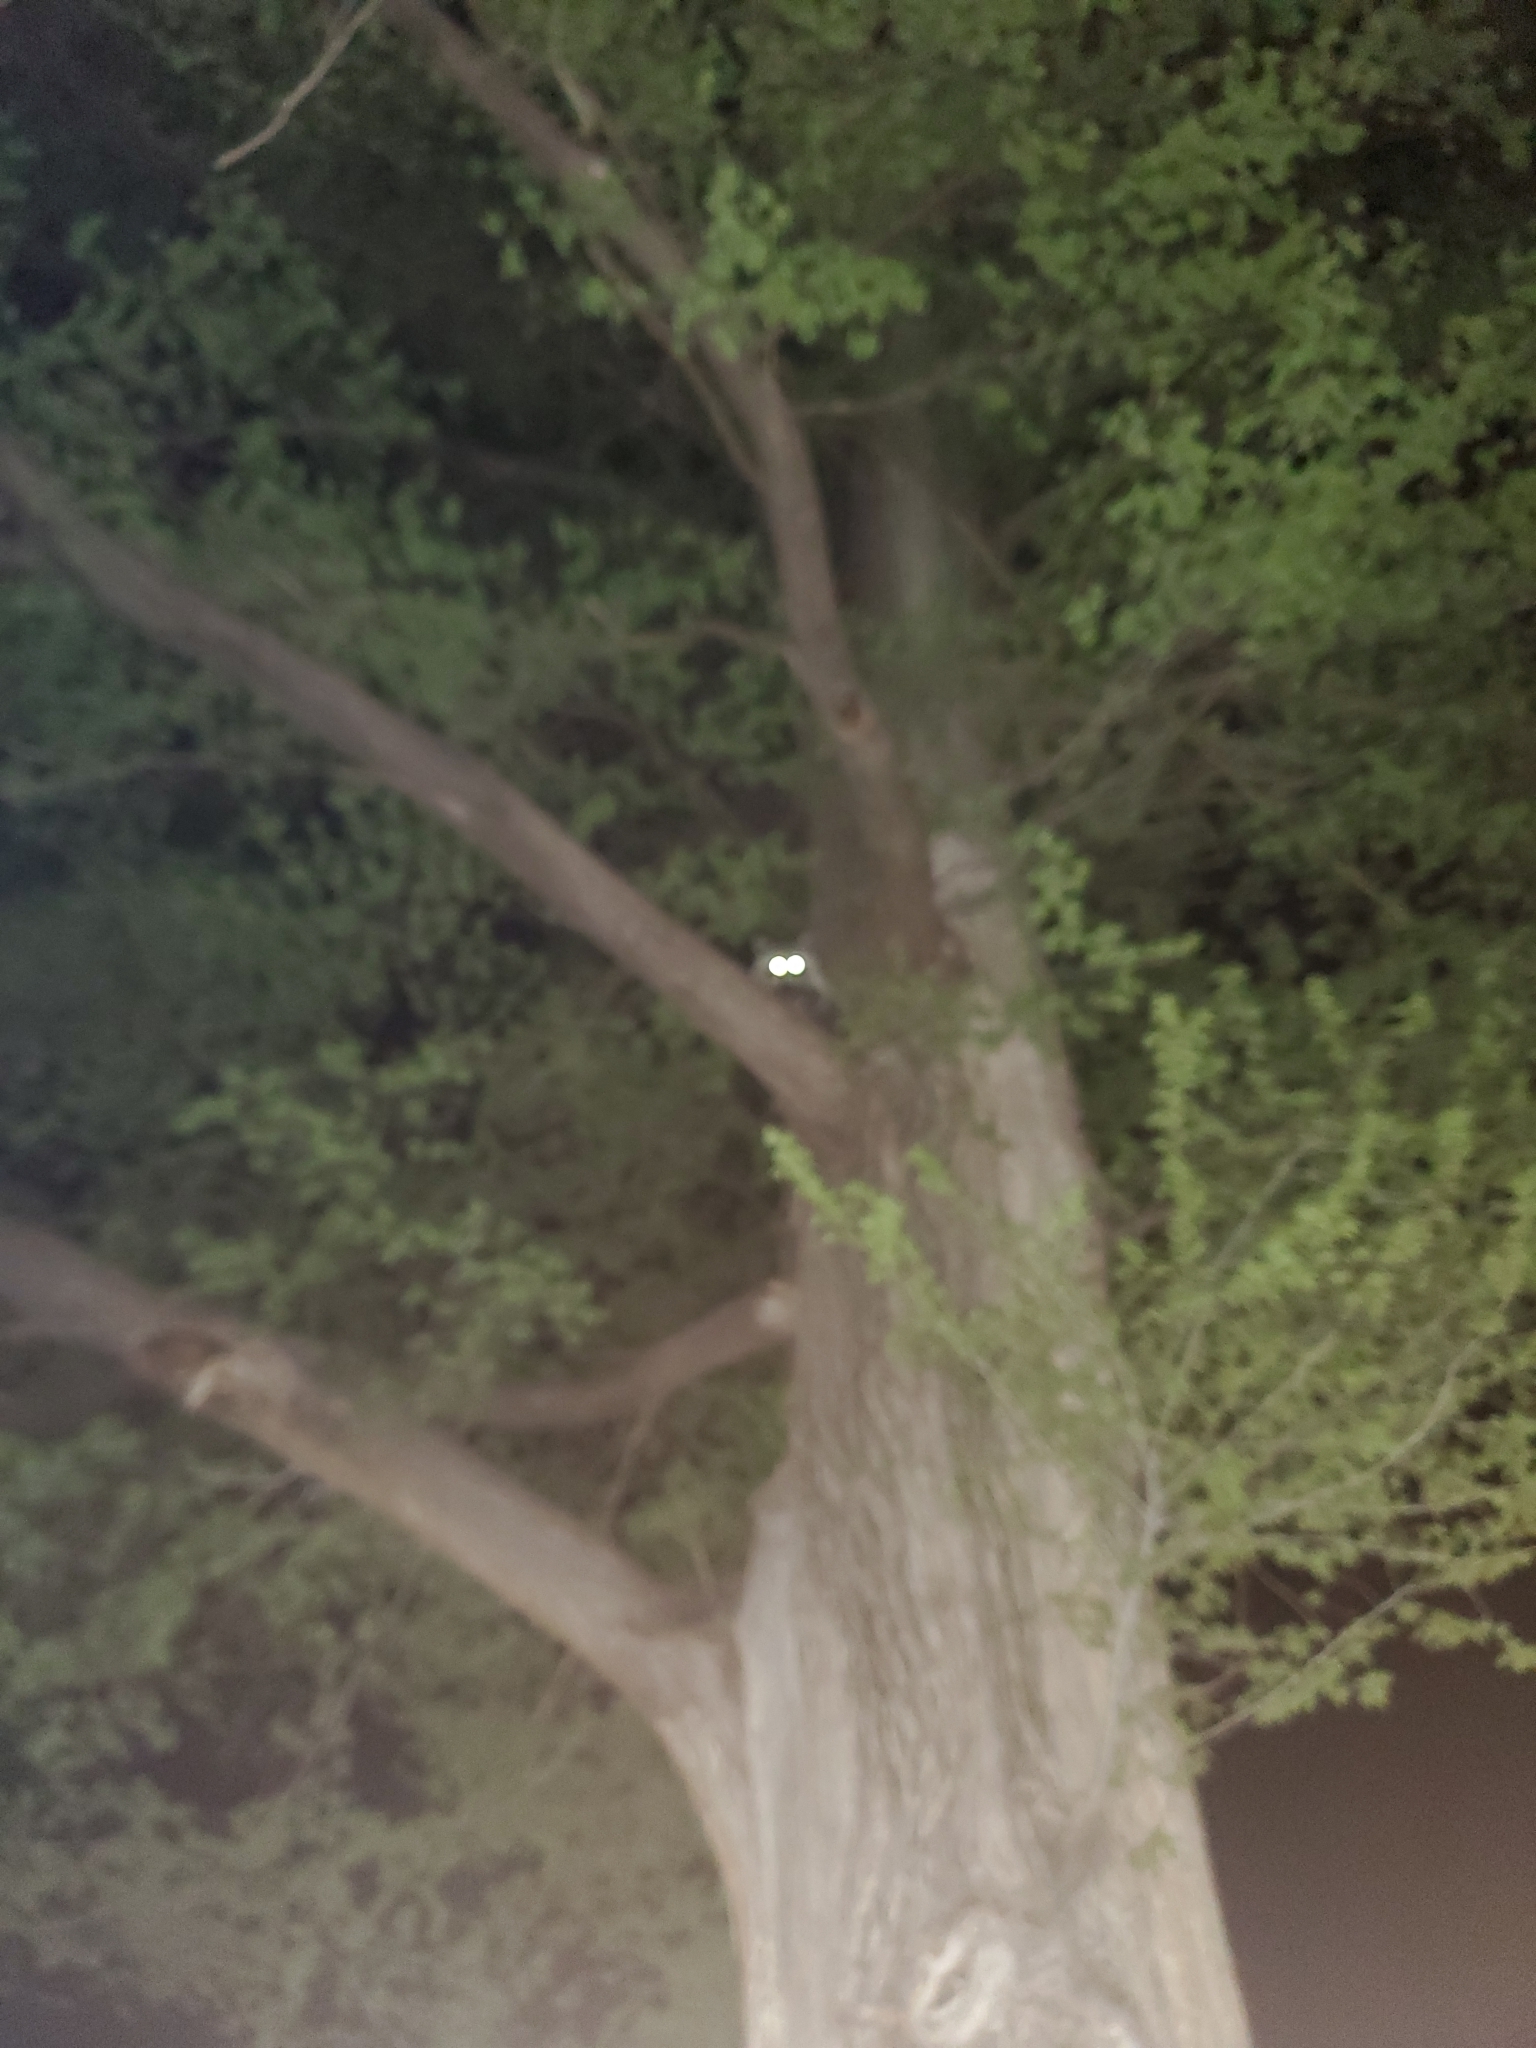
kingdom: Animalia
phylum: Chordata
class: Mammalia
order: Carnivora
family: Procyonidae
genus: Procyon
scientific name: Procyon lotor
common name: Raccoon
